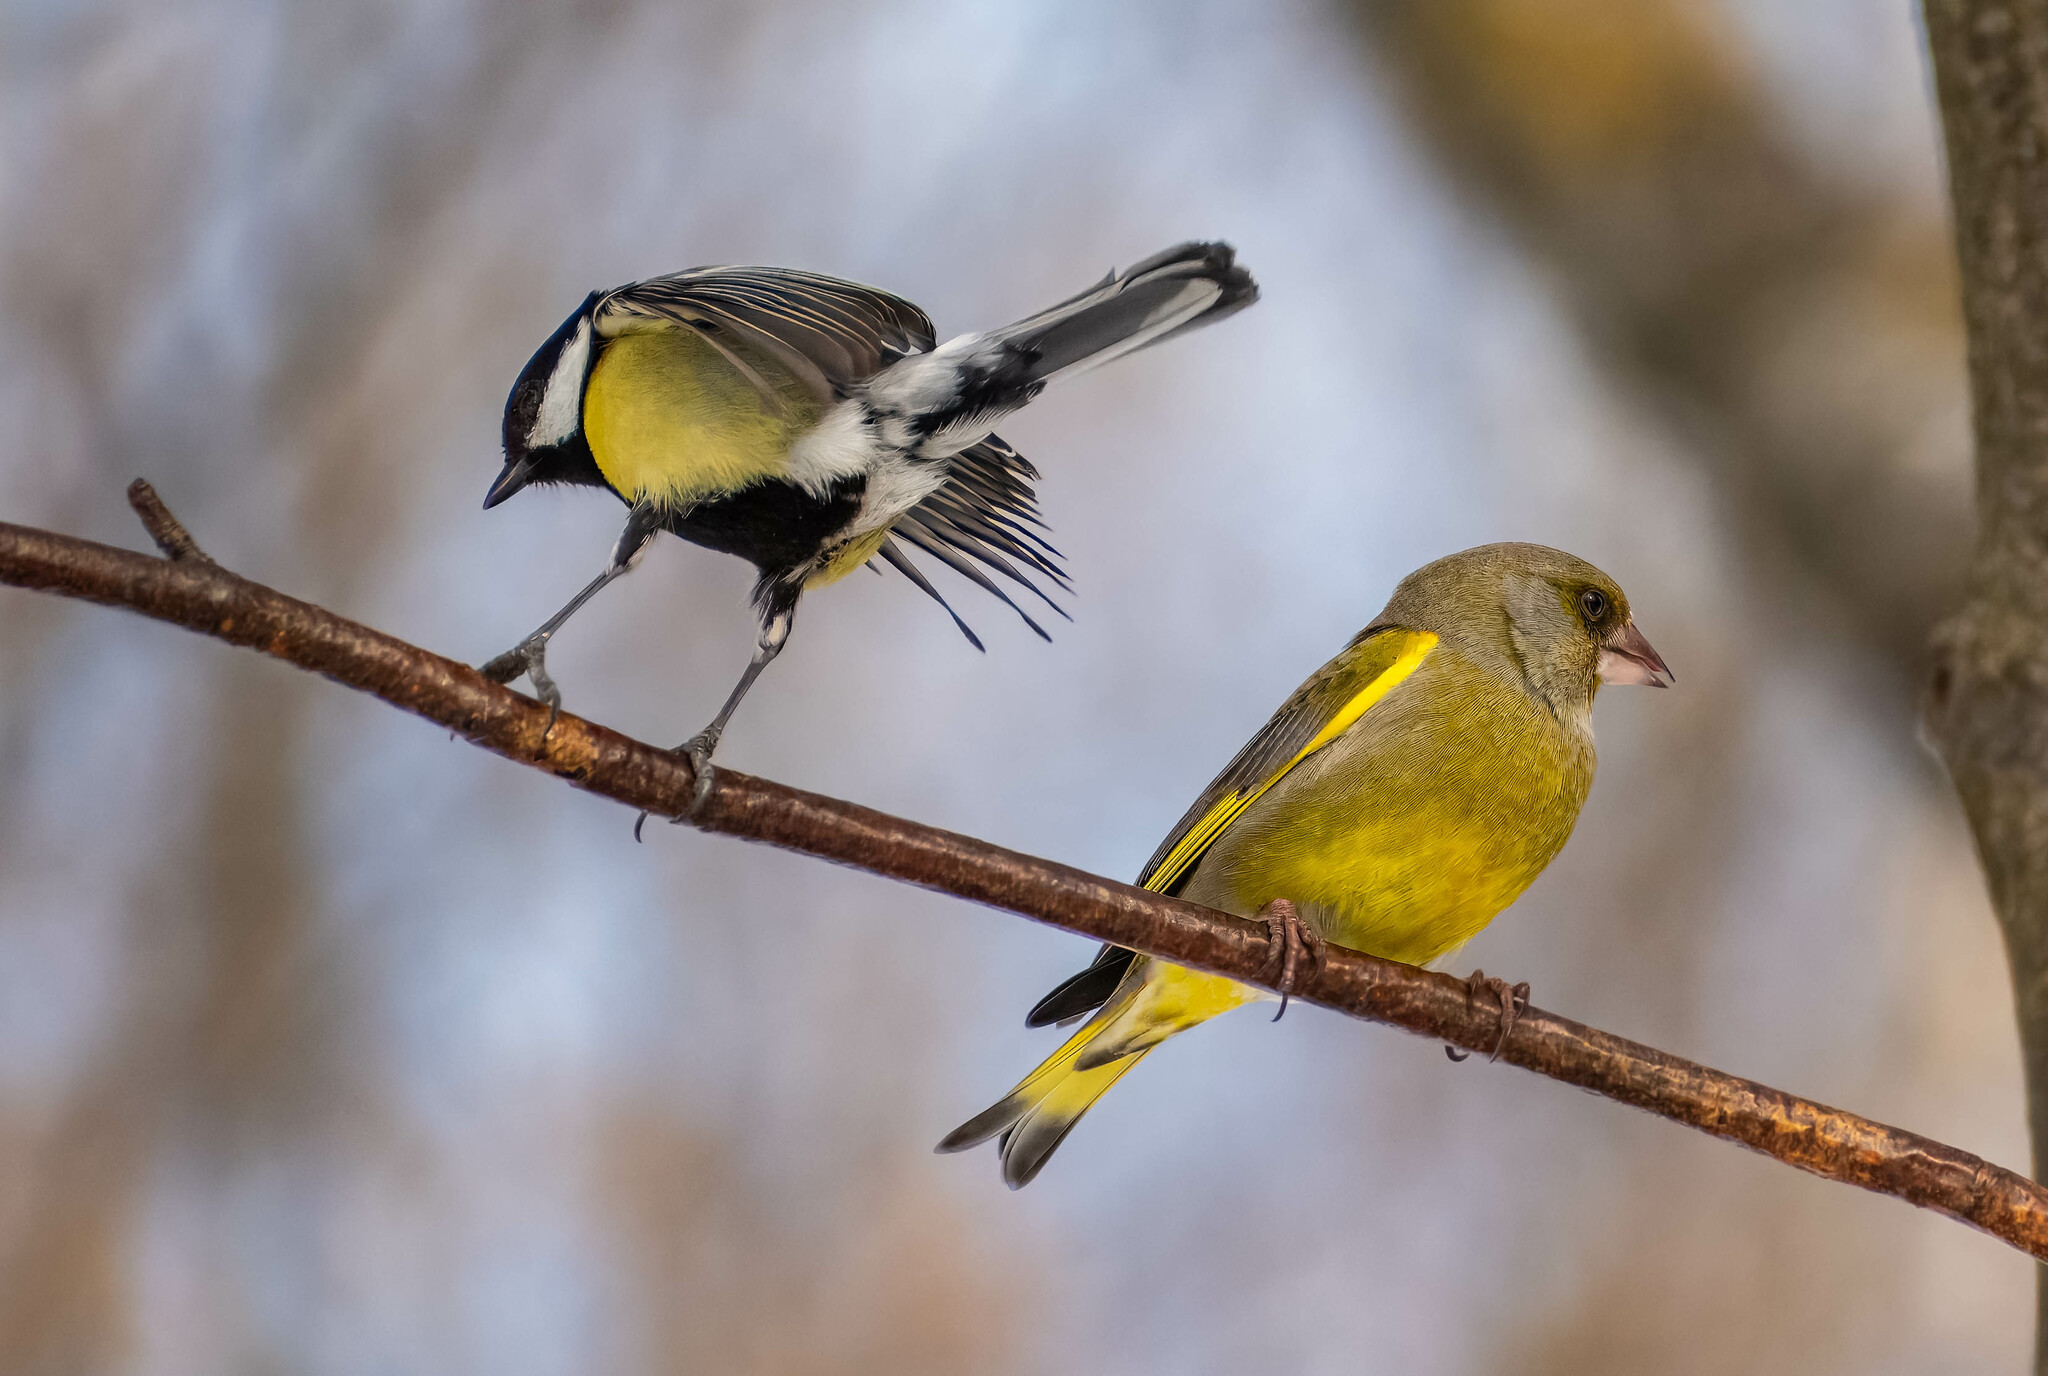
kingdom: Plantae
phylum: Tracheophyta
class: Liliopsida
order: Poales
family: Poaceae
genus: Chloris
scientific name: Chloris chloris
